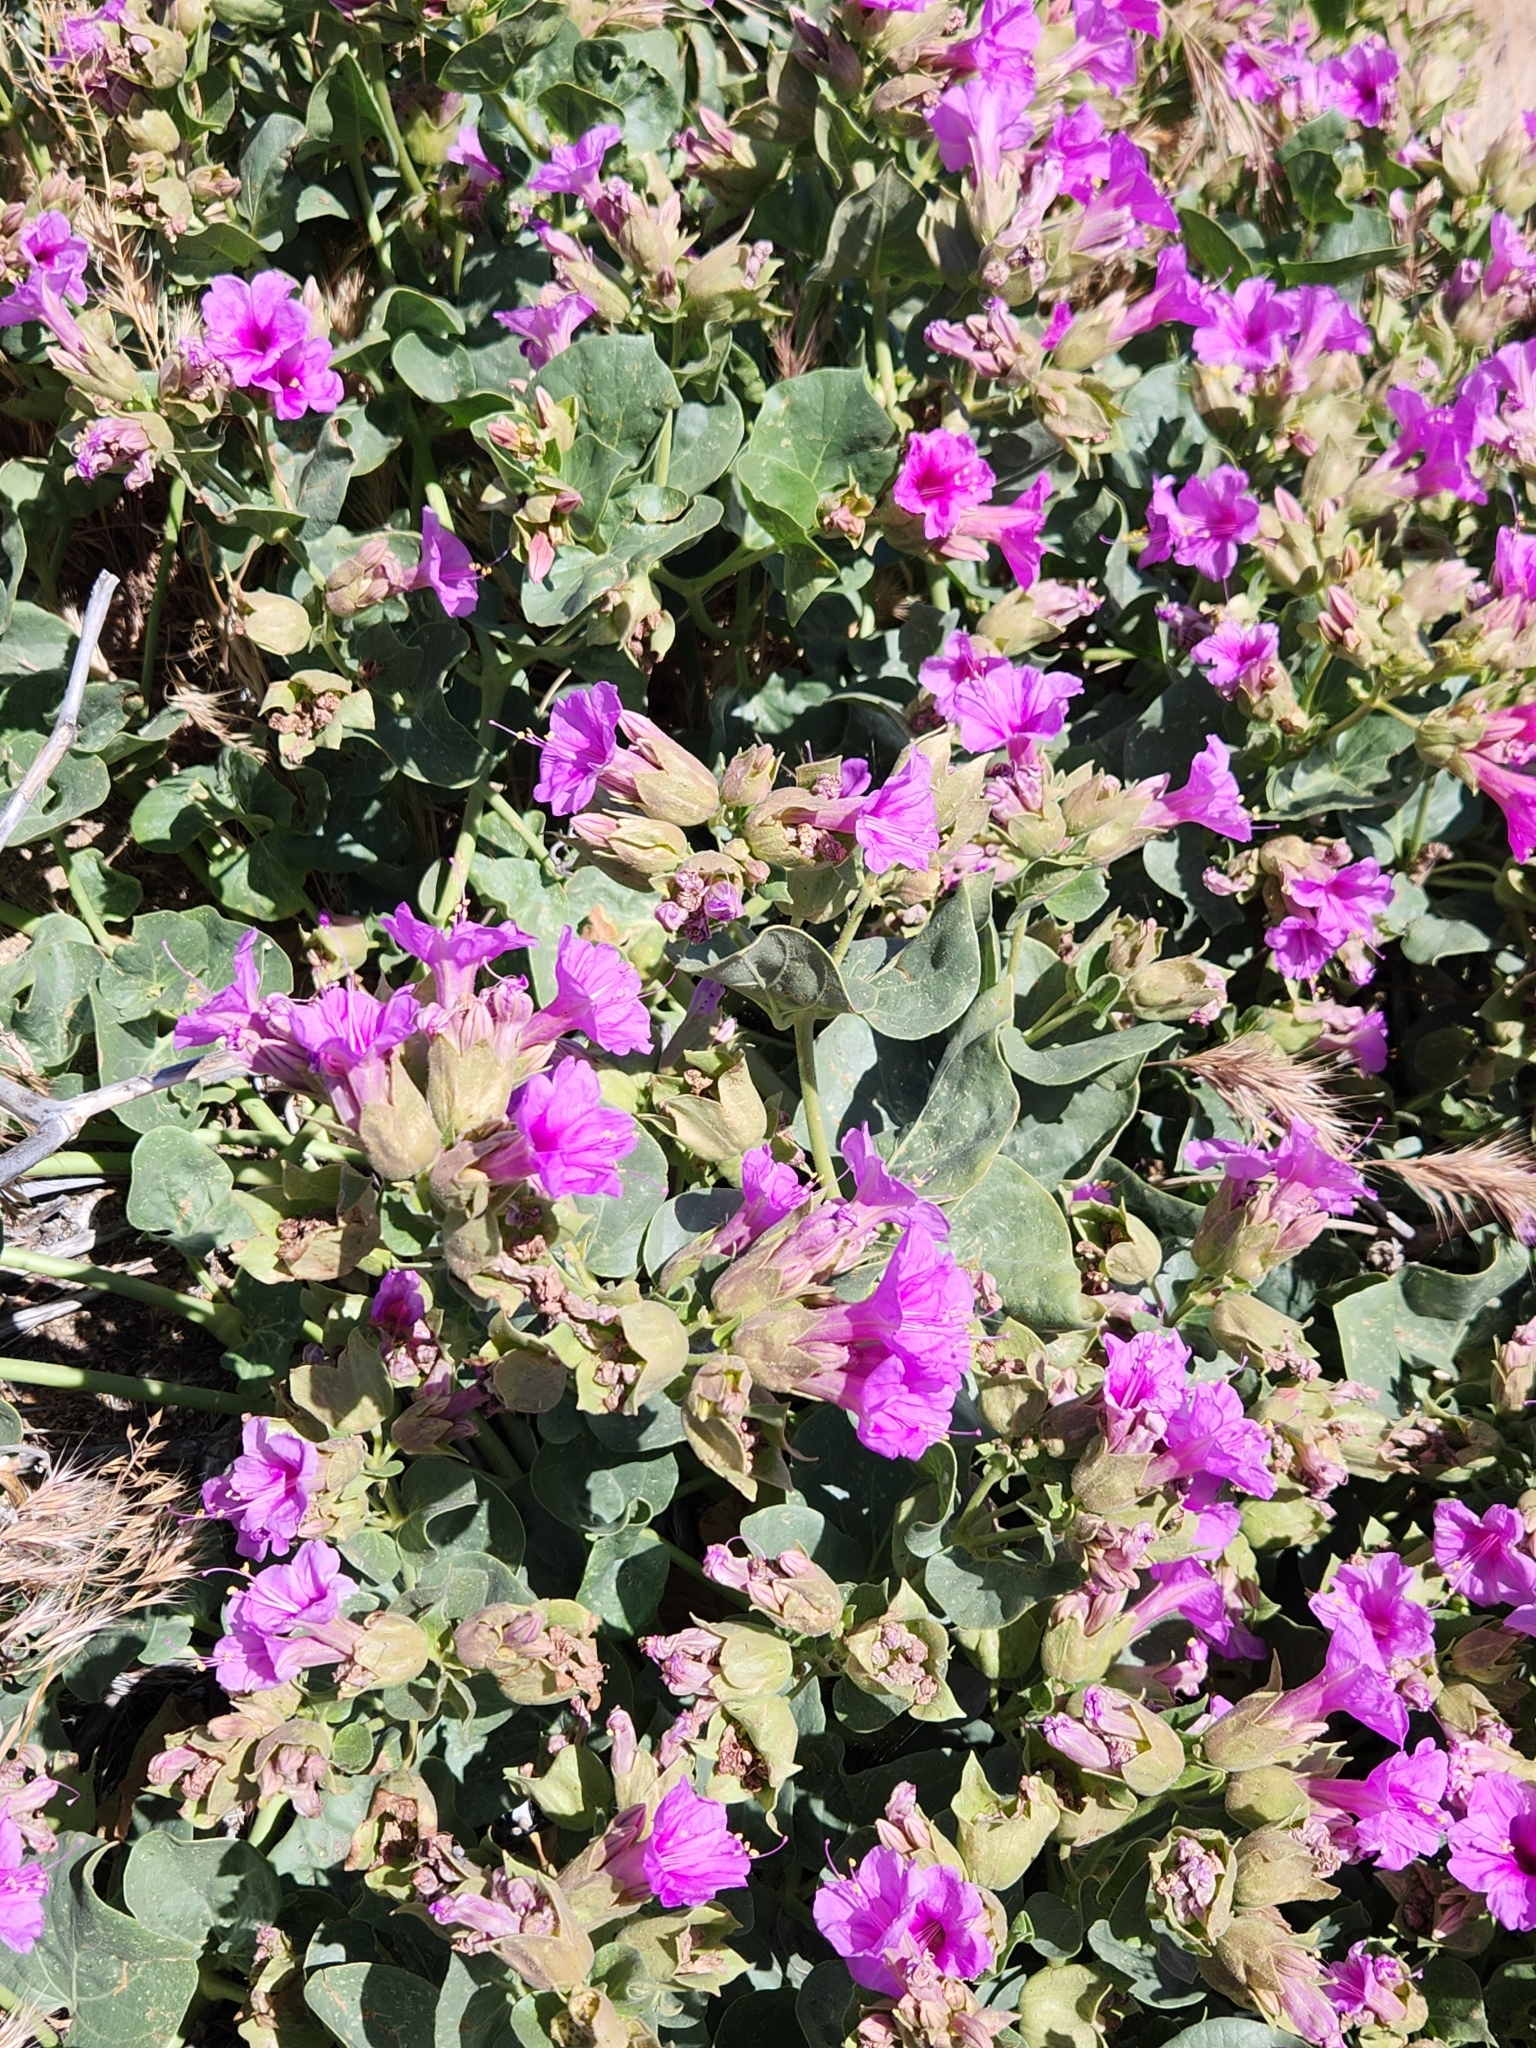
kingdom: Plantae
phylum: Tracheophyta
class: Magnoliopsida
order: Caryophyllales
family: Nyctaginaceae
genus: Mirabilis
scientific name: Mirabilis multiflora
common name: Froebel's four-o'clock
